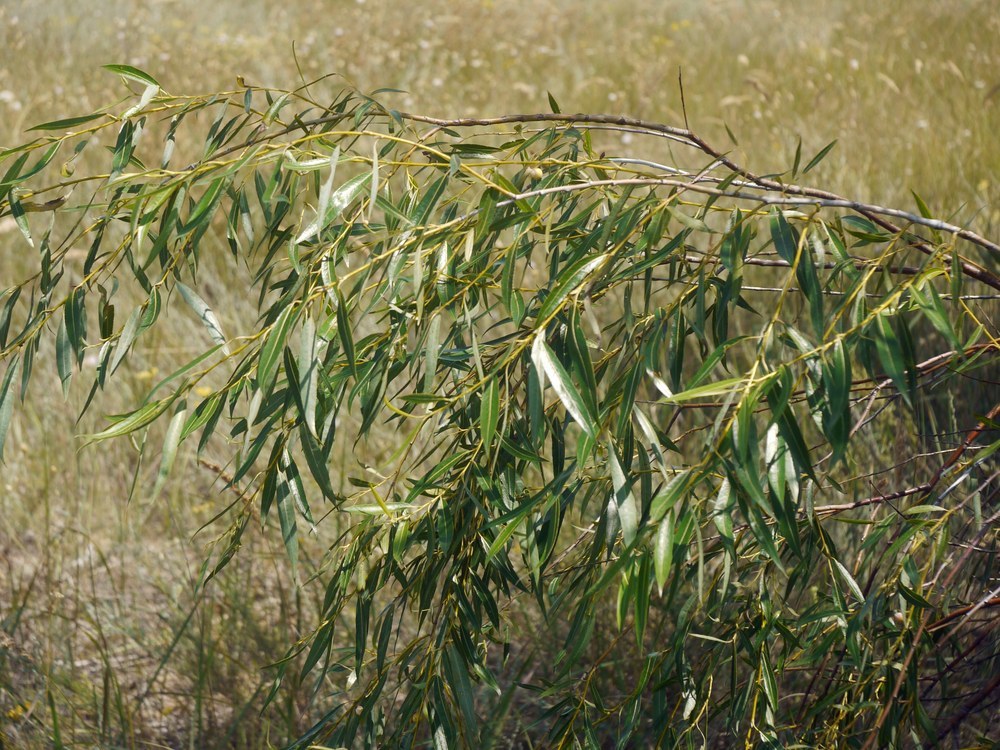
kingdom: Plantae
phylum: Tracheophyta
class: Magnoliopsida
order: Malpighiales
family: Salicaceae
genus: Salix
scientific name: Salix acutifolia
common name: Siberian violet-willow
